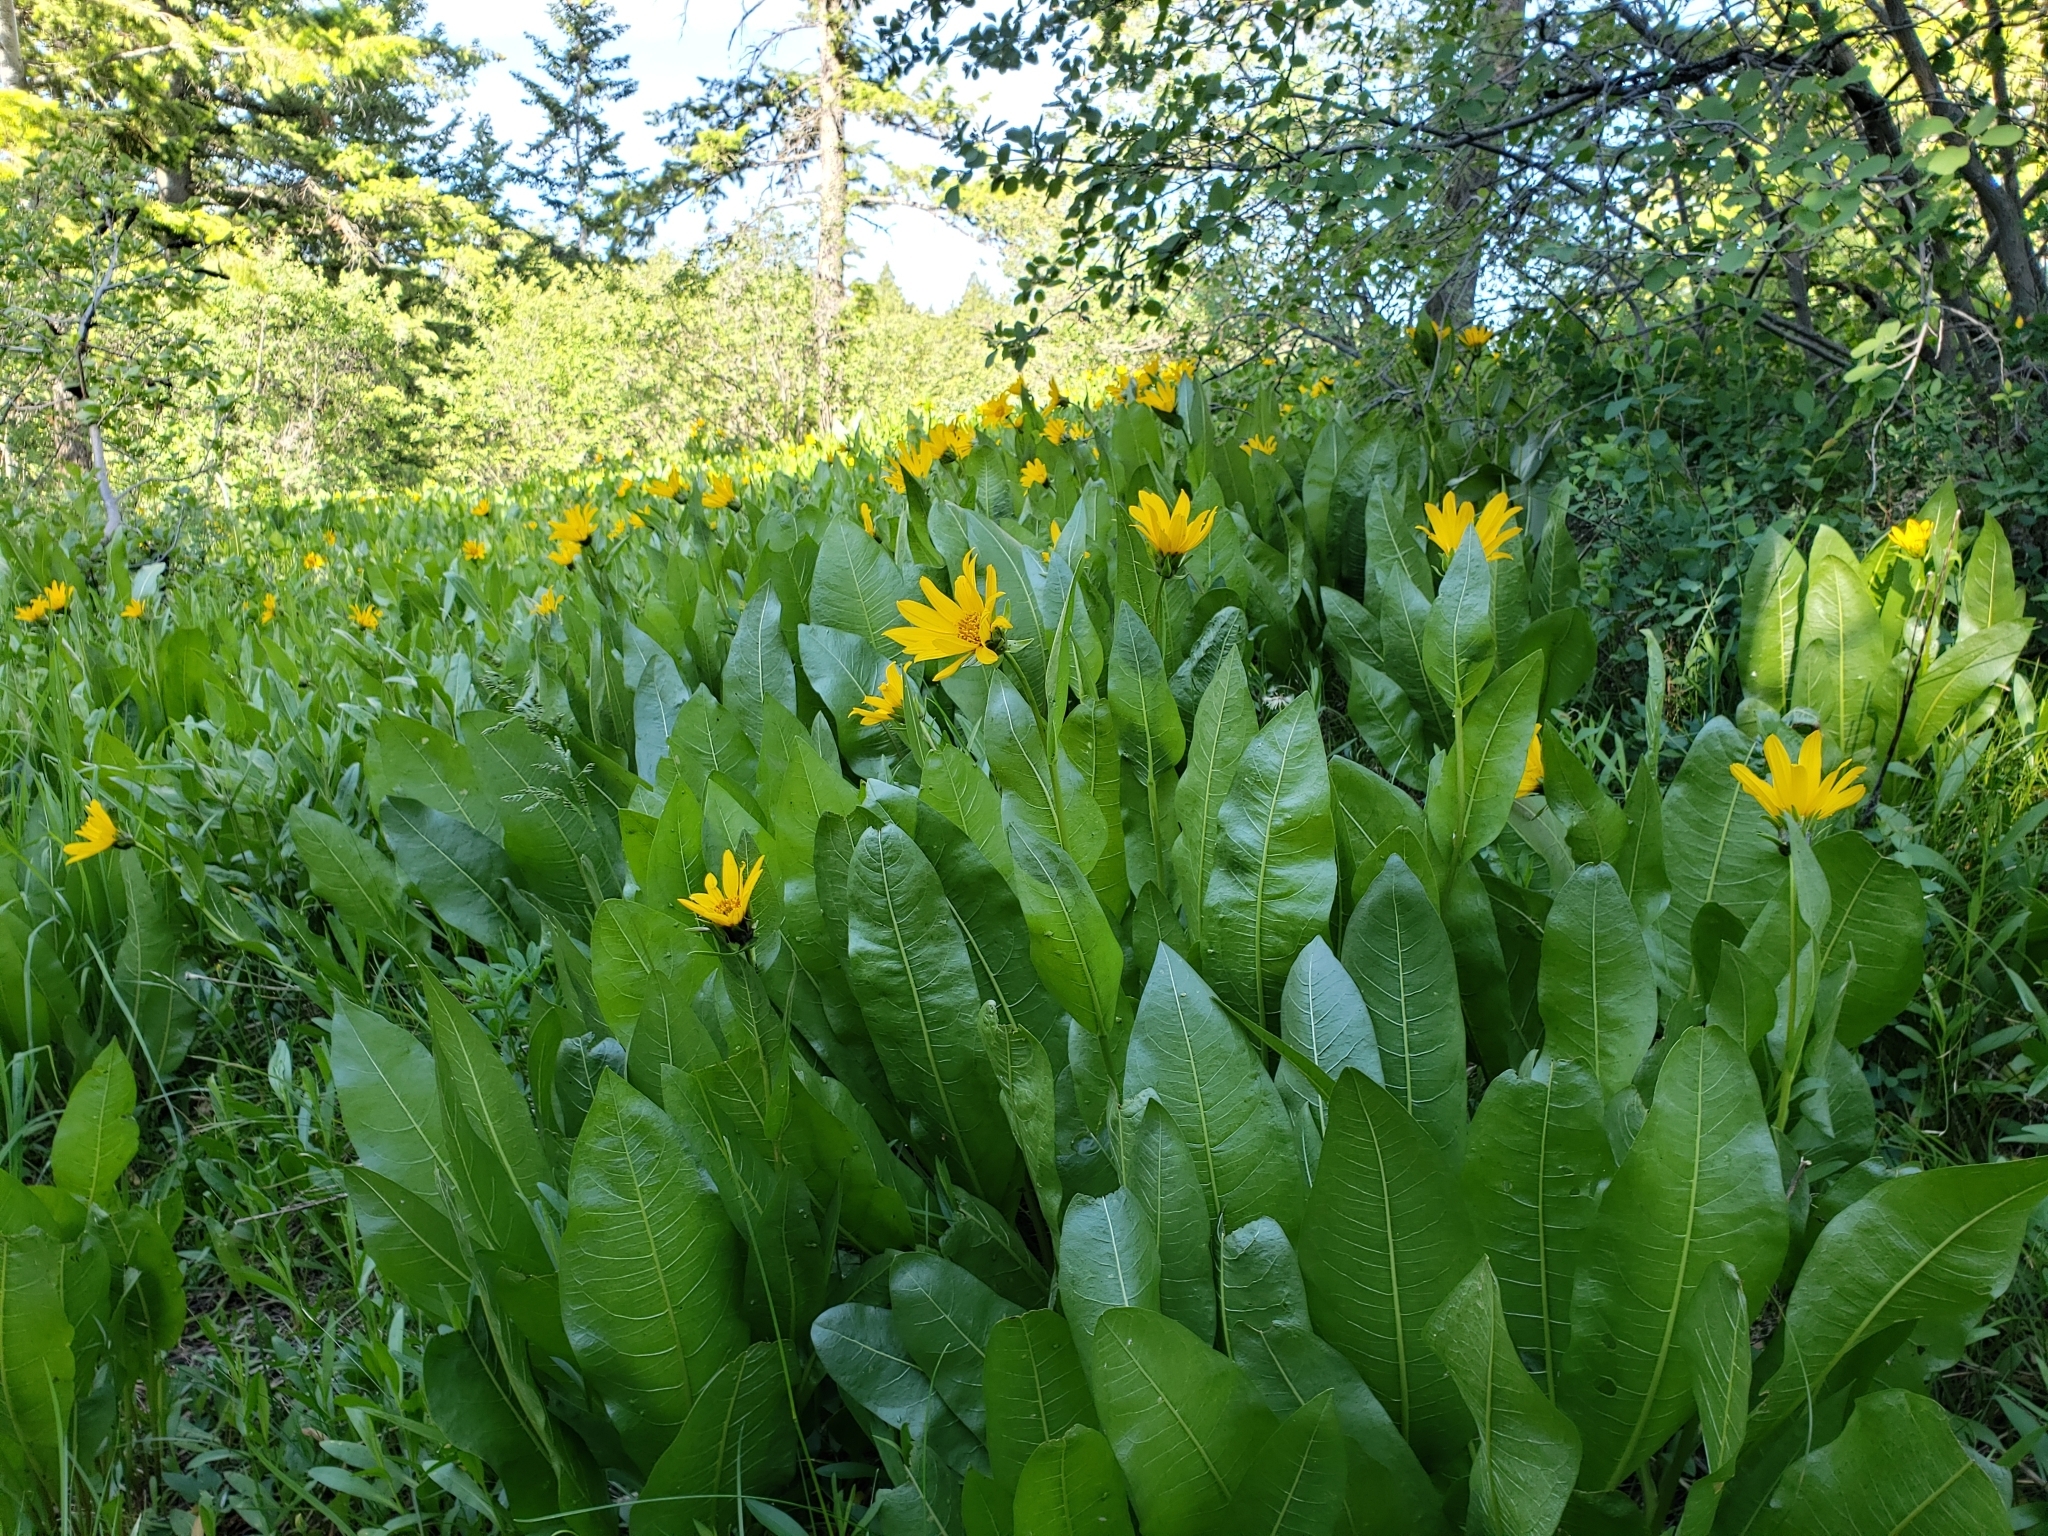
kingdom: Plantae
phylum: Tracheophyta
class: Magnoliopsida
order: Asterales
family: Asteraceae
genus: Wyethia
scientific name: Wyethia amplexicaulis
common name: Northern mule's-ears
